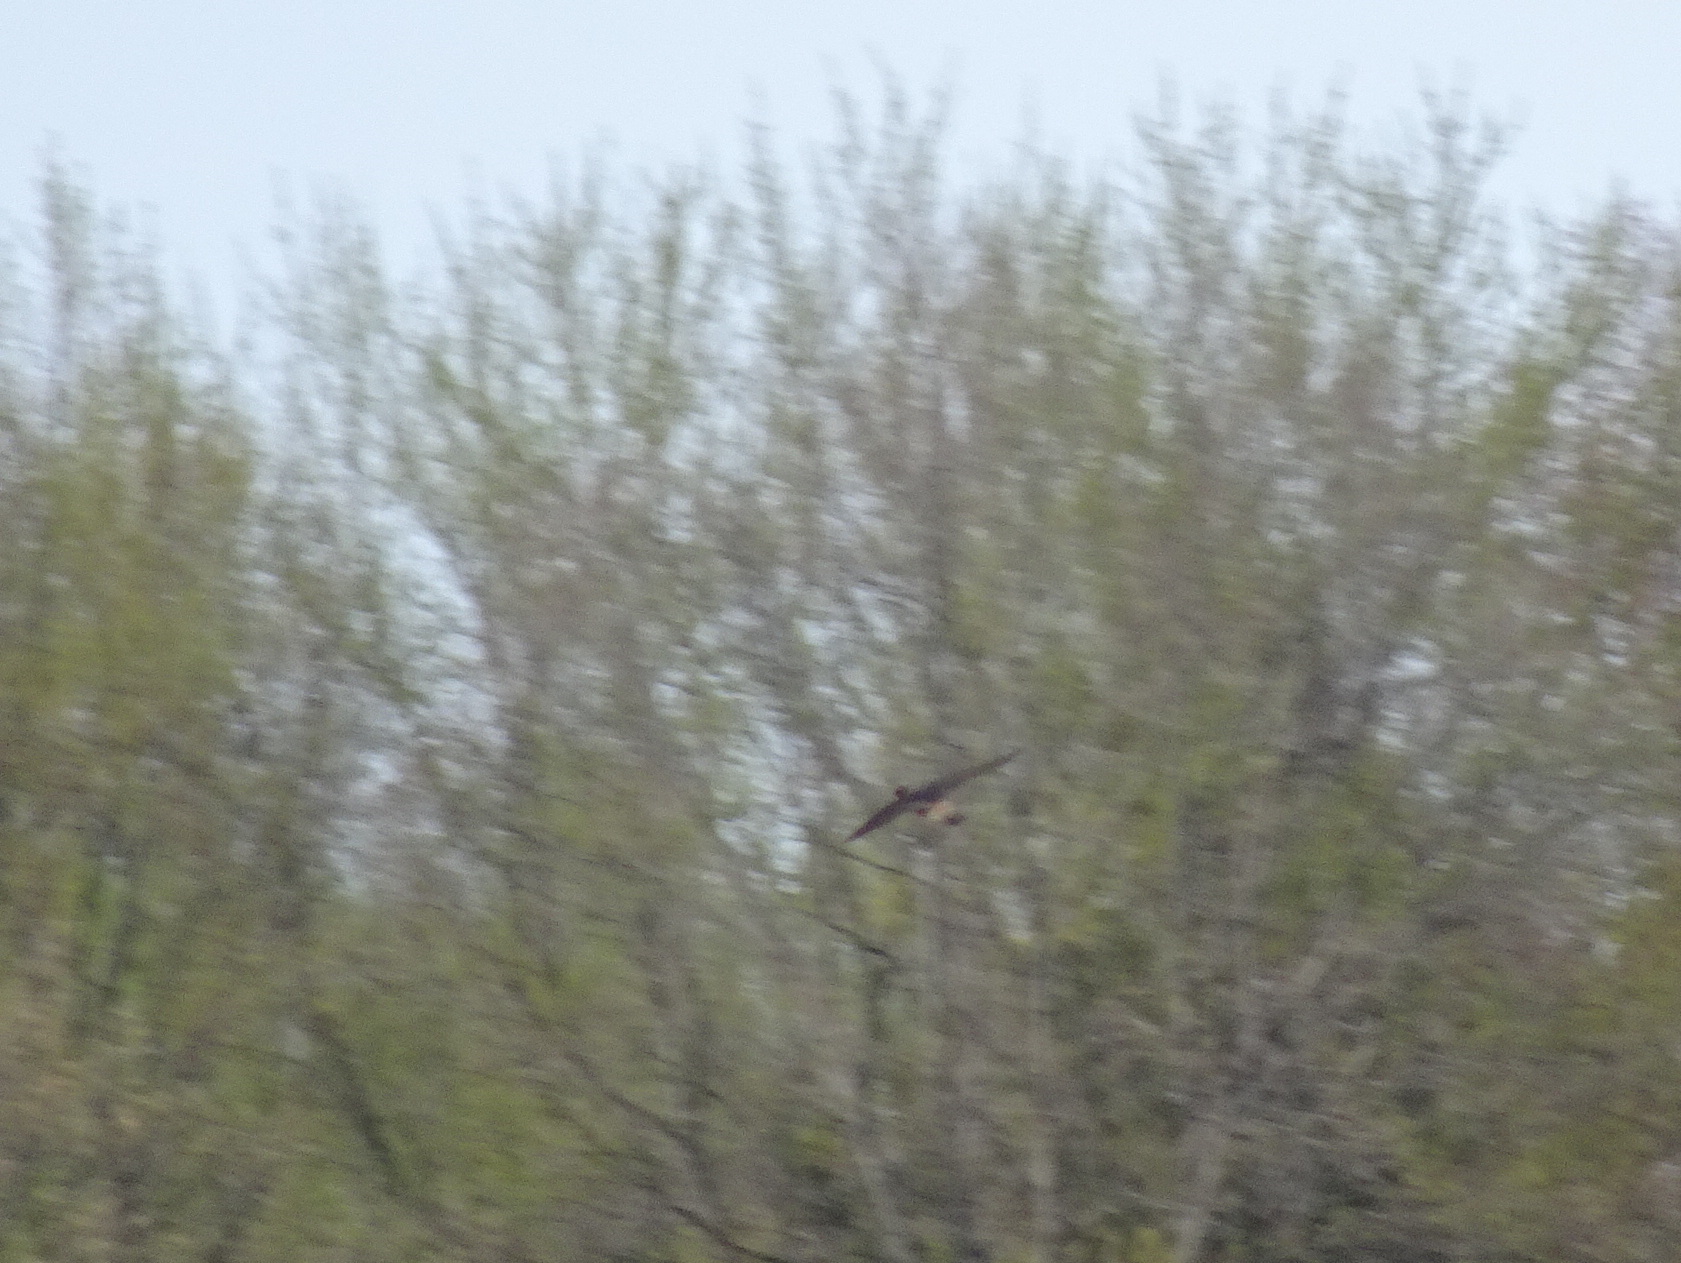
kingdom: Animalia
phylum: Chordata
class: Aves
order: Passeriformes
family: Hirundinidae
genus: Petrochelidon
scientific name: Petrochelidon pyrrhonota
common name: American cliff swallow
